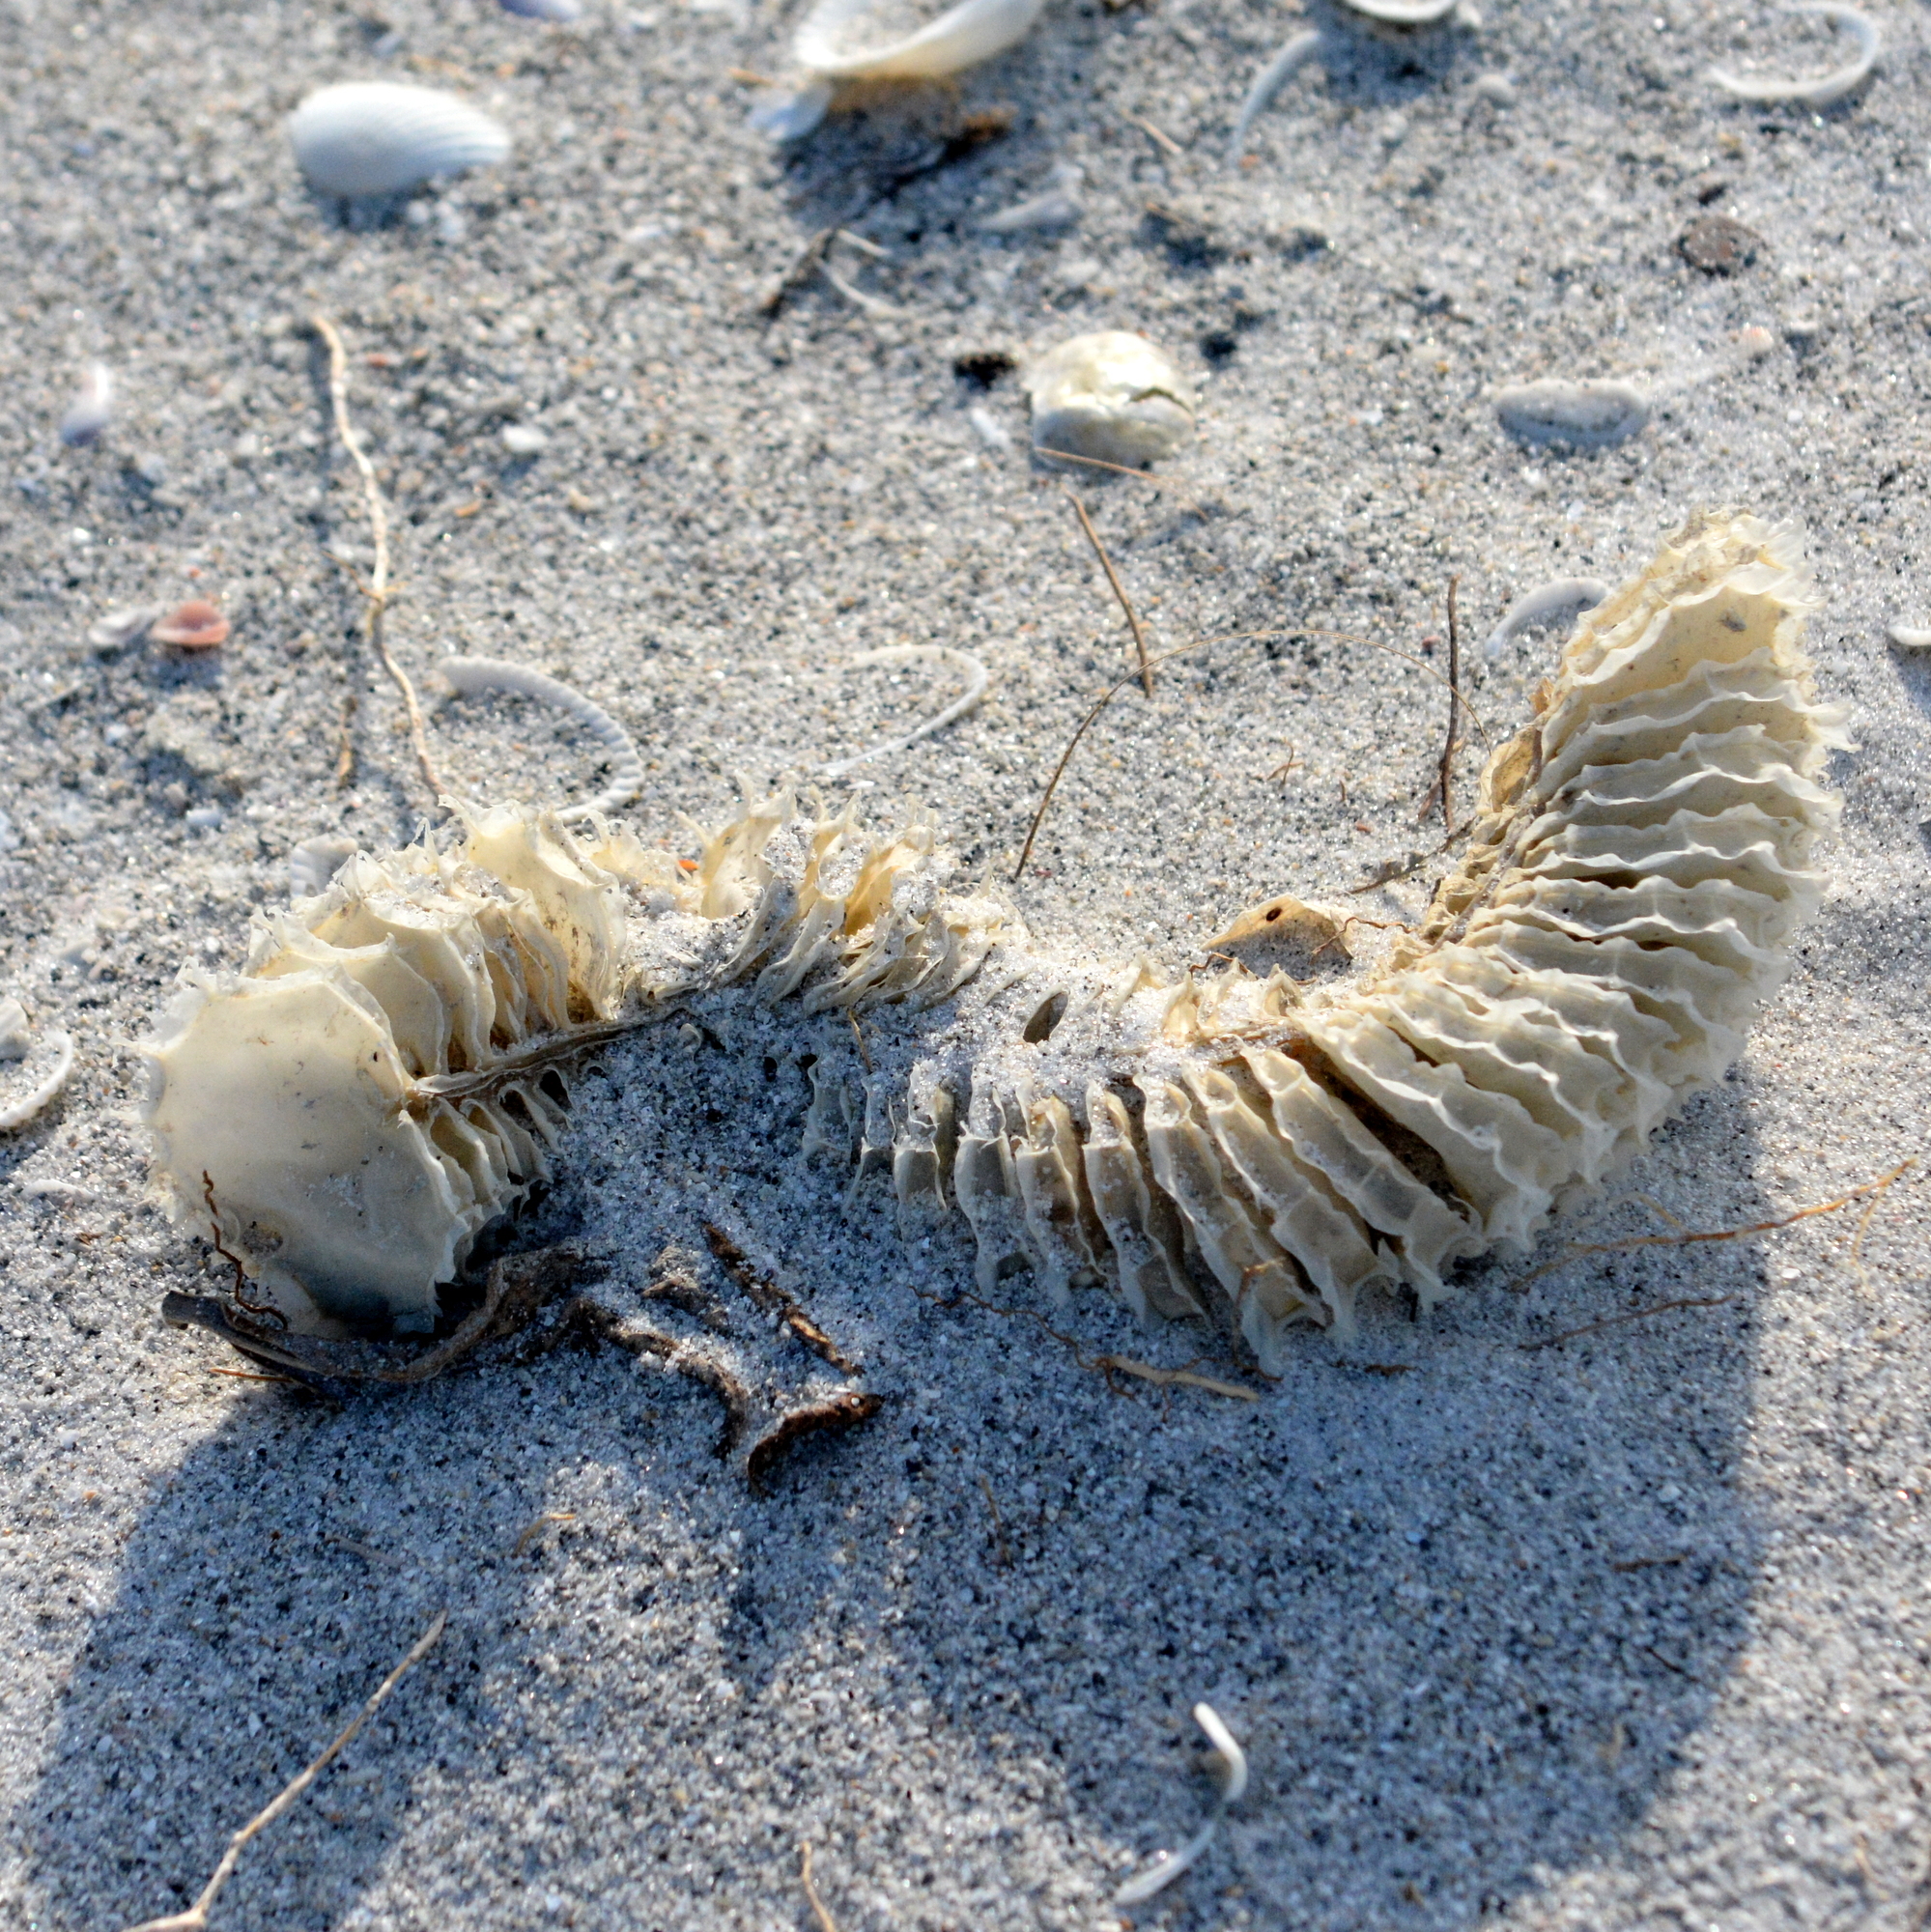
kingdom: Animalia
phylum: Mollusca
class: Gastropoda
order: Neogastropoda
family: Busyconidae
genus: Sinistrofulgur
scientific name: Sinistrofulgur sinistrum
